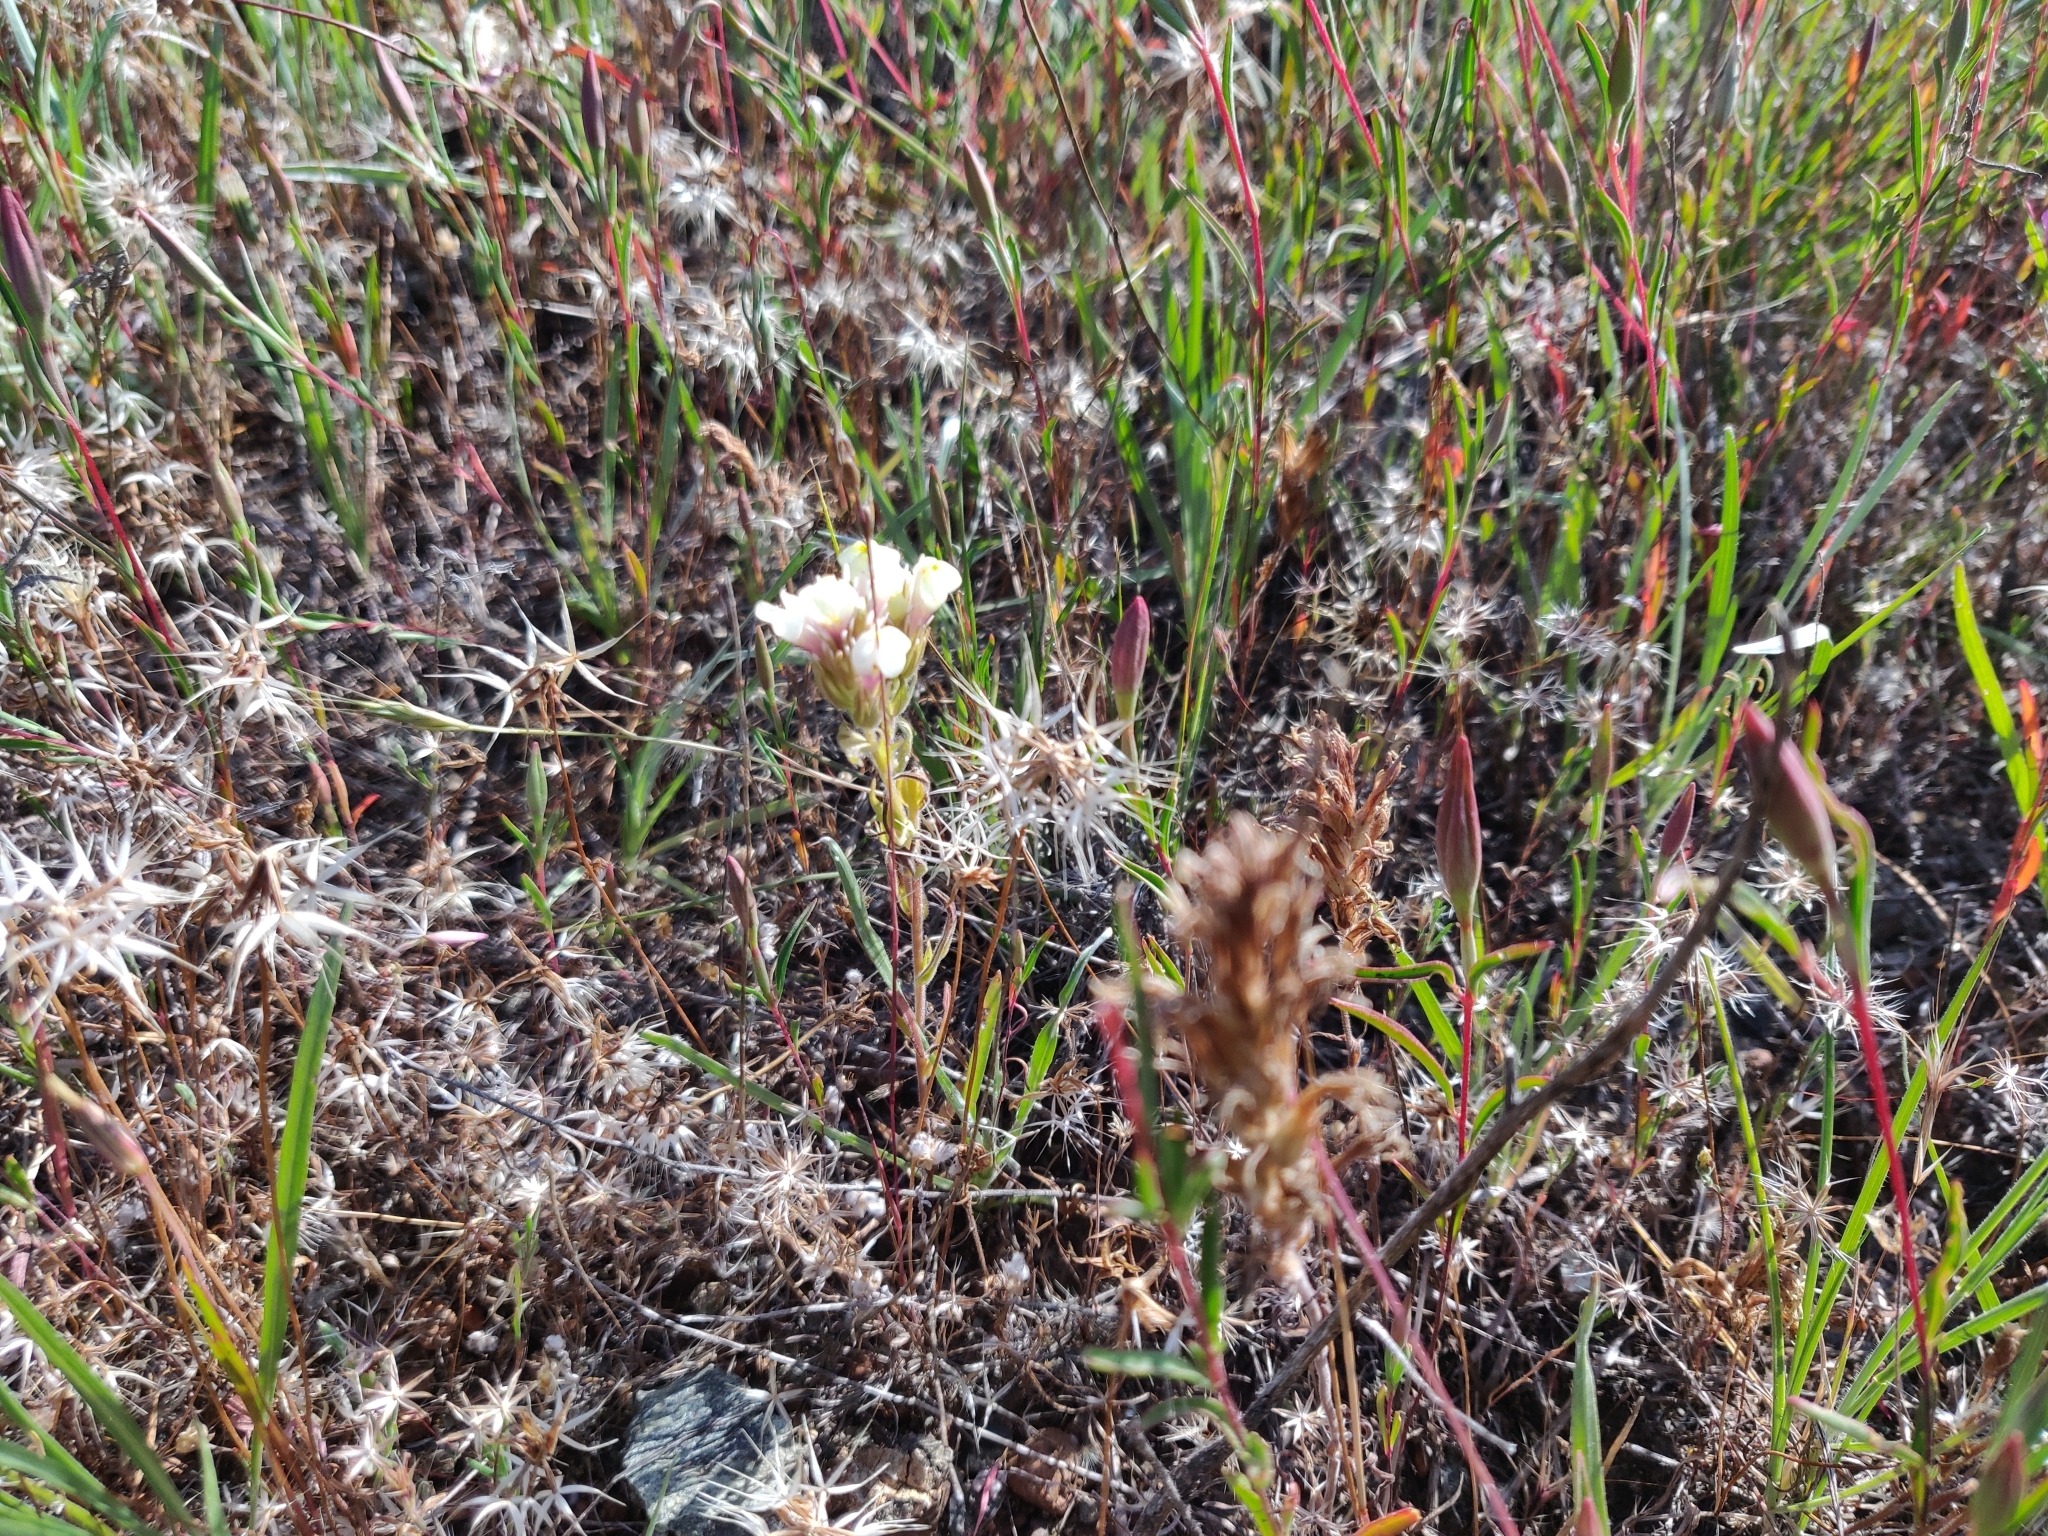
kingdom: Plantae
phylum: Tracheophyta
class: Magnoliopsida
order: Lamiales
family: Orobanchaceae
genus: Castilleja
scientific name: Castilleja rubicundula
